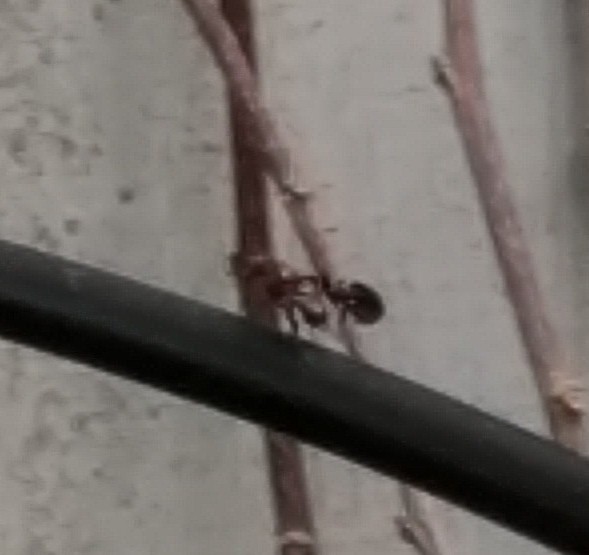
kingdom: Animalia
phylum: Arthropoda
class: Insecta
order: Diptera
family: Ulidiidae
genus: Delphinia
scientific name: Delphinia picta
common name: Common picture-winged fly
